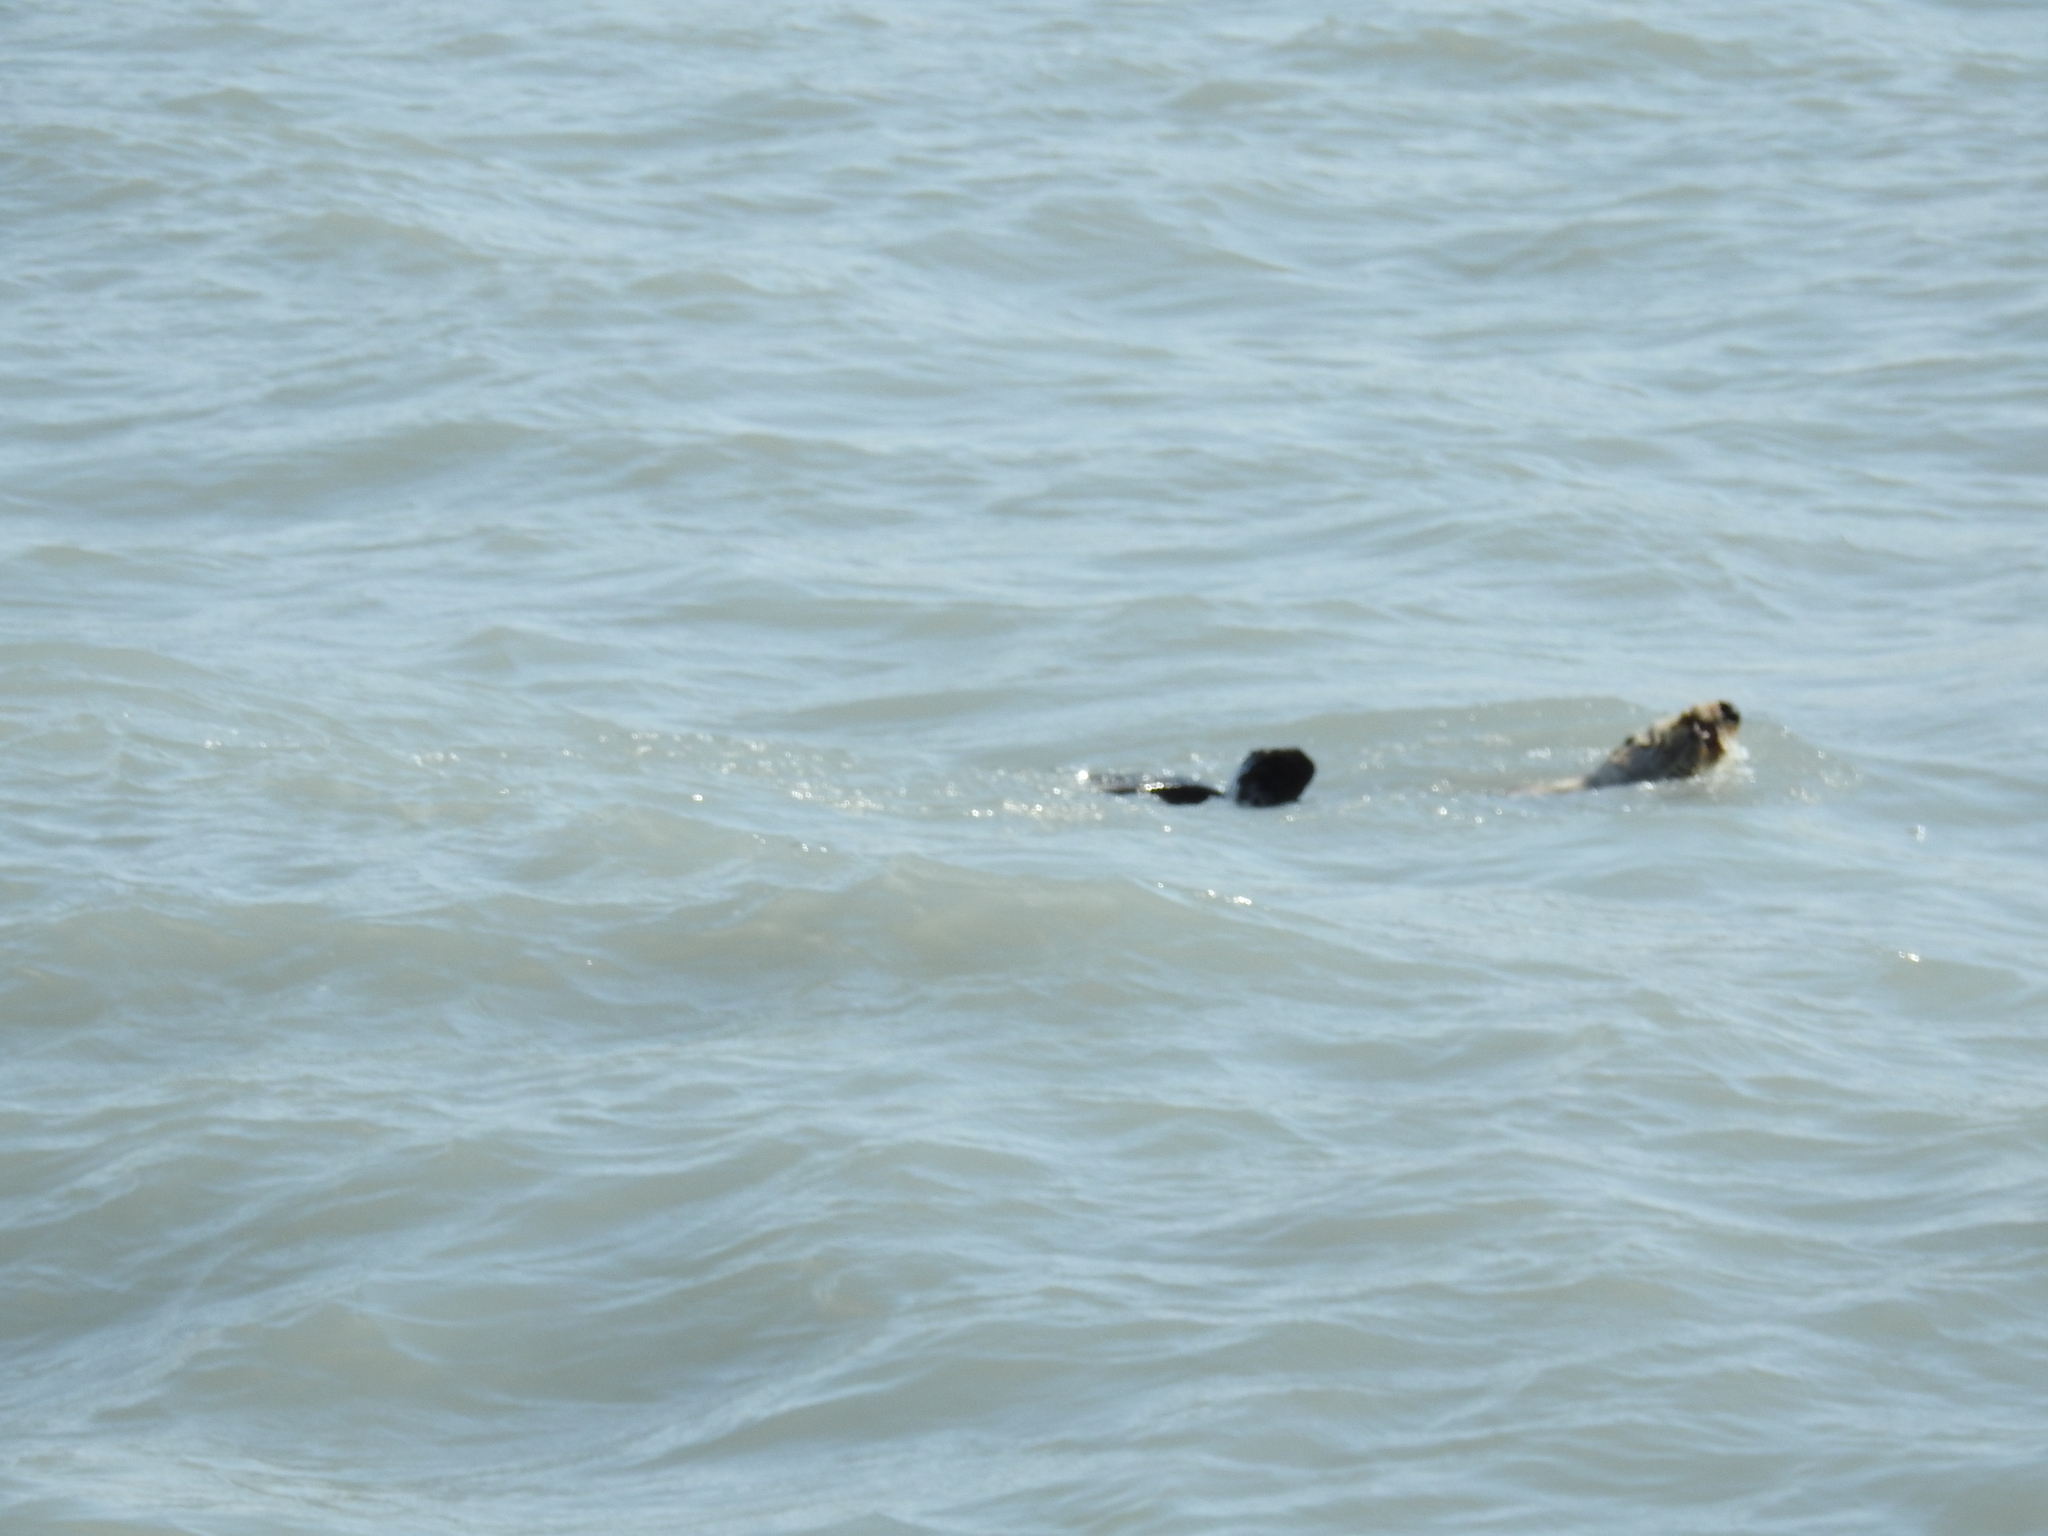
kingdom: Animalia
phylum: Chordata
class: Mammalia
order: Carnivora
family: Mustelidae
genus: Enhydra
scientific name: Enhydra lutris
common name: Sea otter
